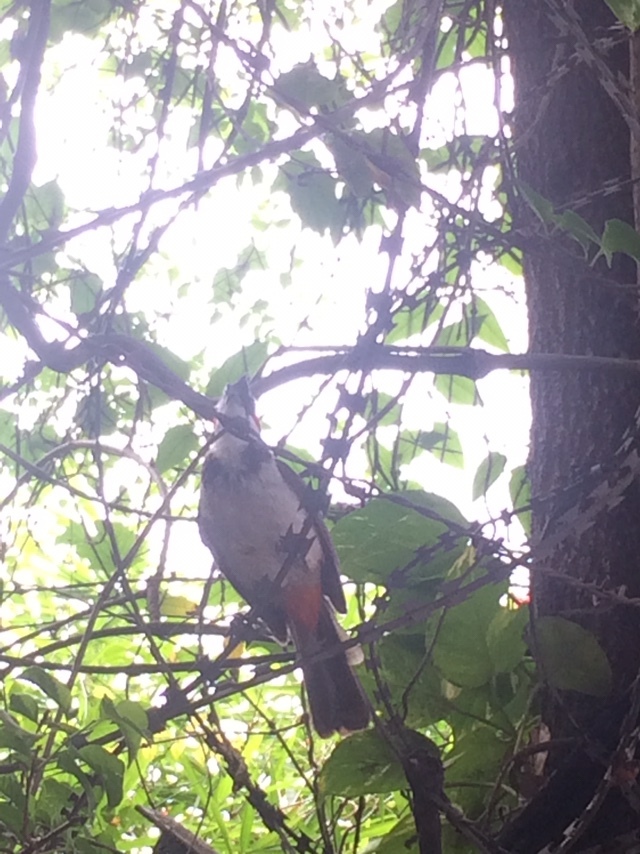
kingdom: Animalia
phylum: Chordata
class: Aves
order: Passeriformes
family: Pycnonotidae
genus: Pycnonotus
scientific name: Pycnonotus jocosus
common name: Red-whiskered bulbul
